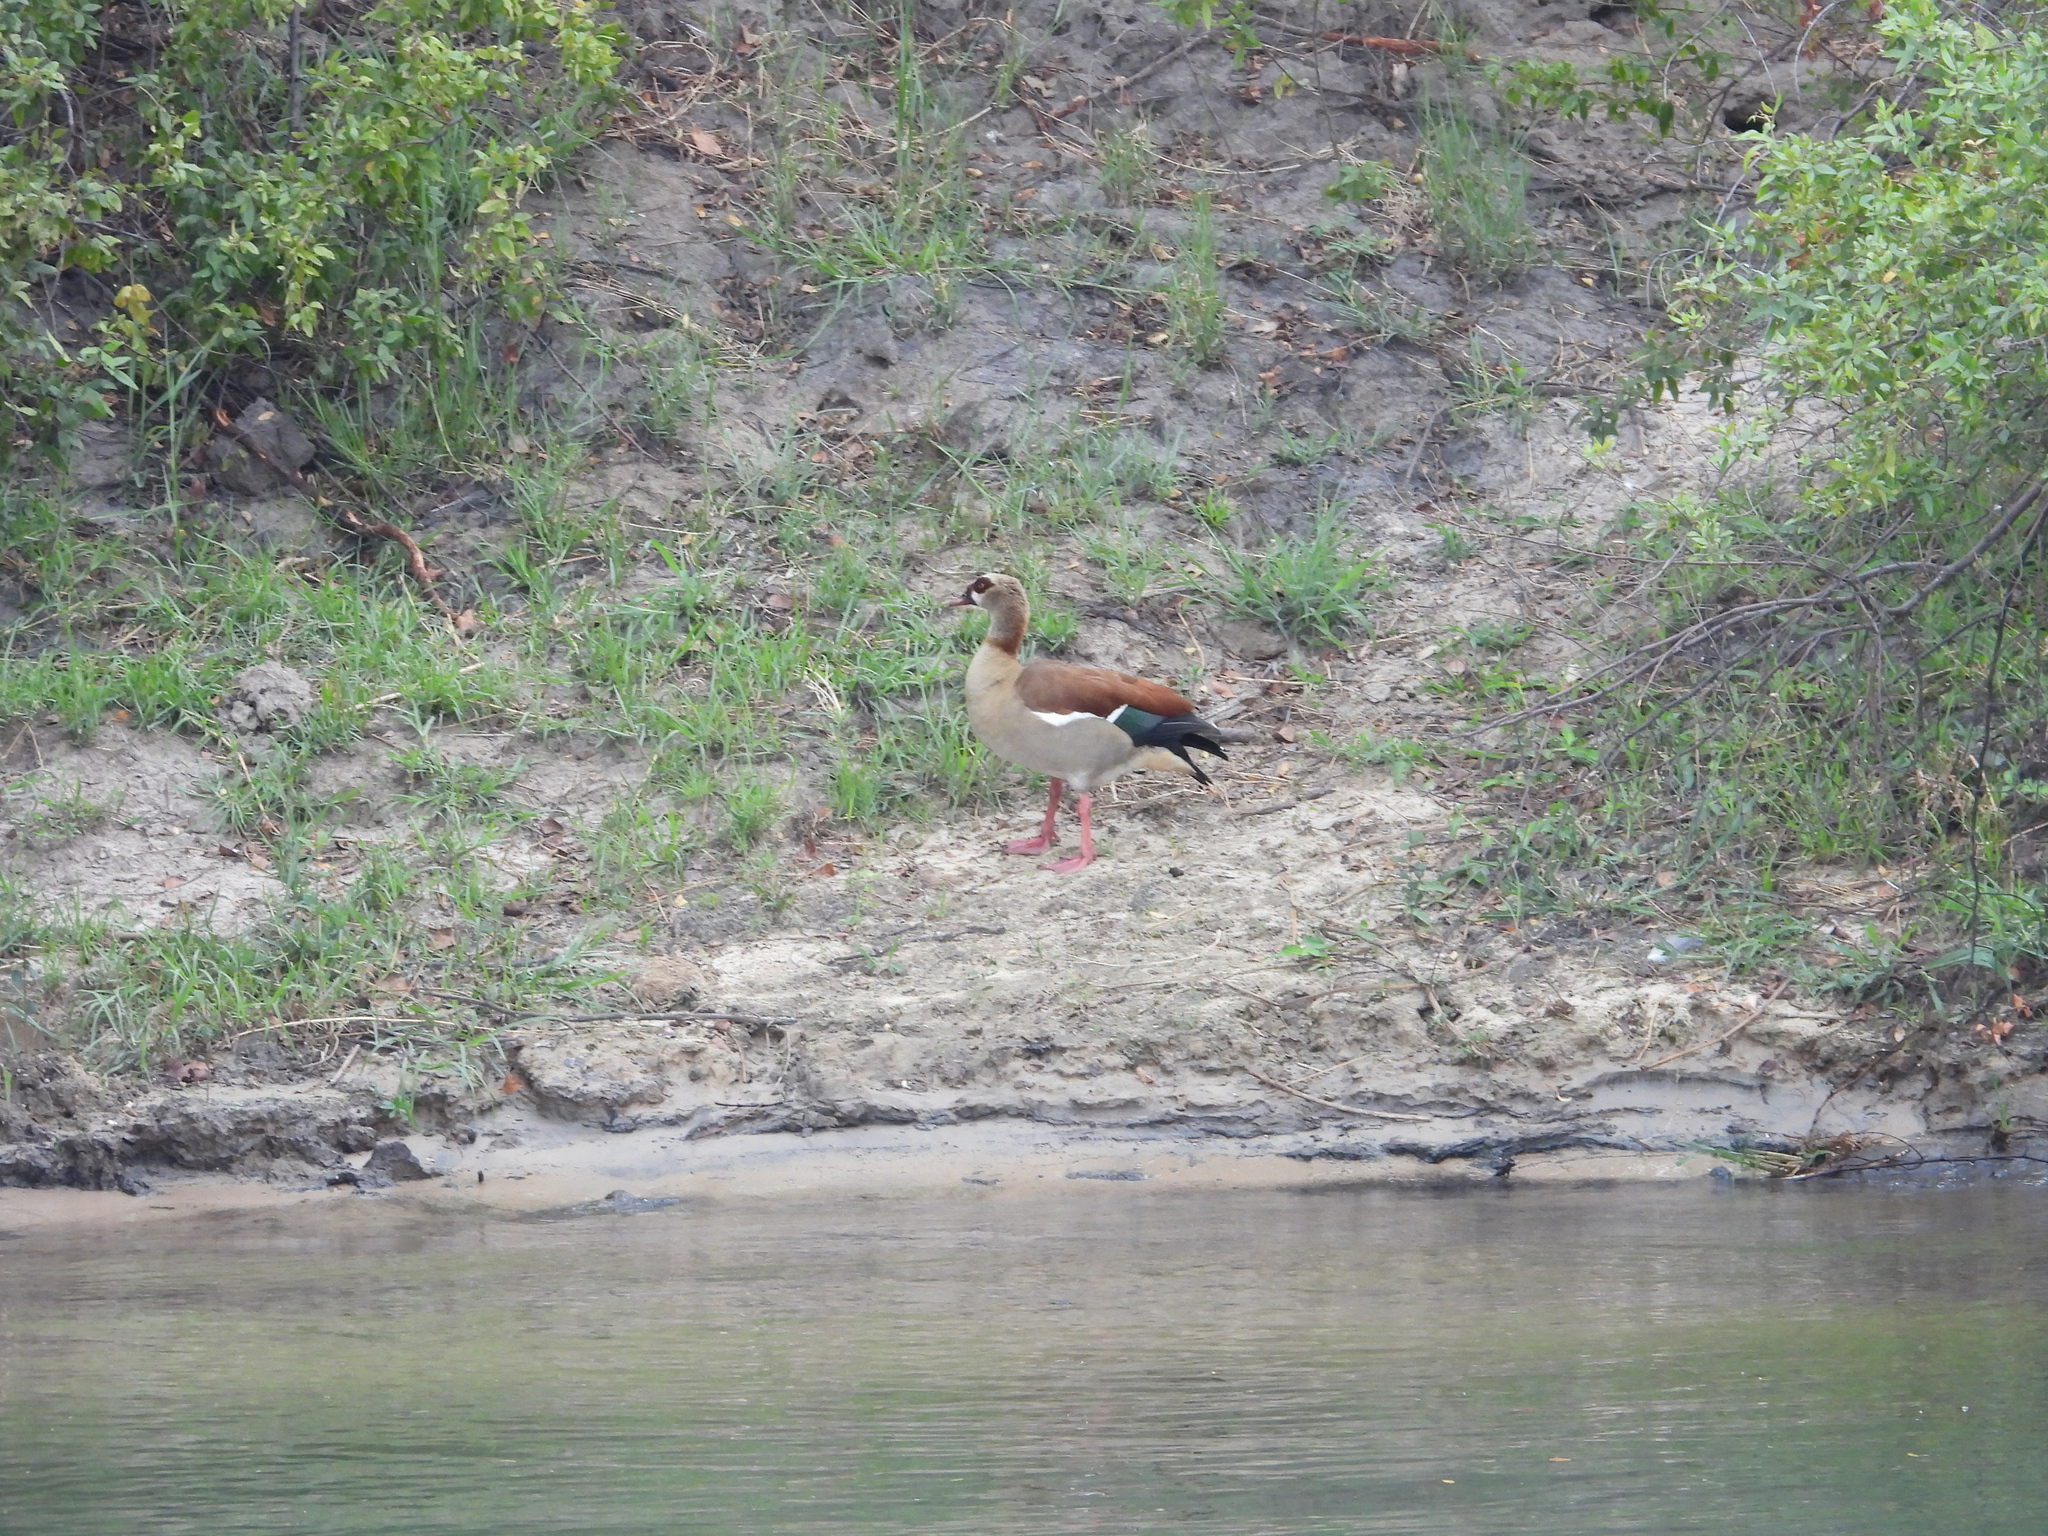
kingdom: Animalia
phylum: Chordata
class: Aves
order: Anseriformes
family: Anatidae
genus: Alopochen
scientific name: Alopochen aegyptiaca
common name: Egyptian goose
